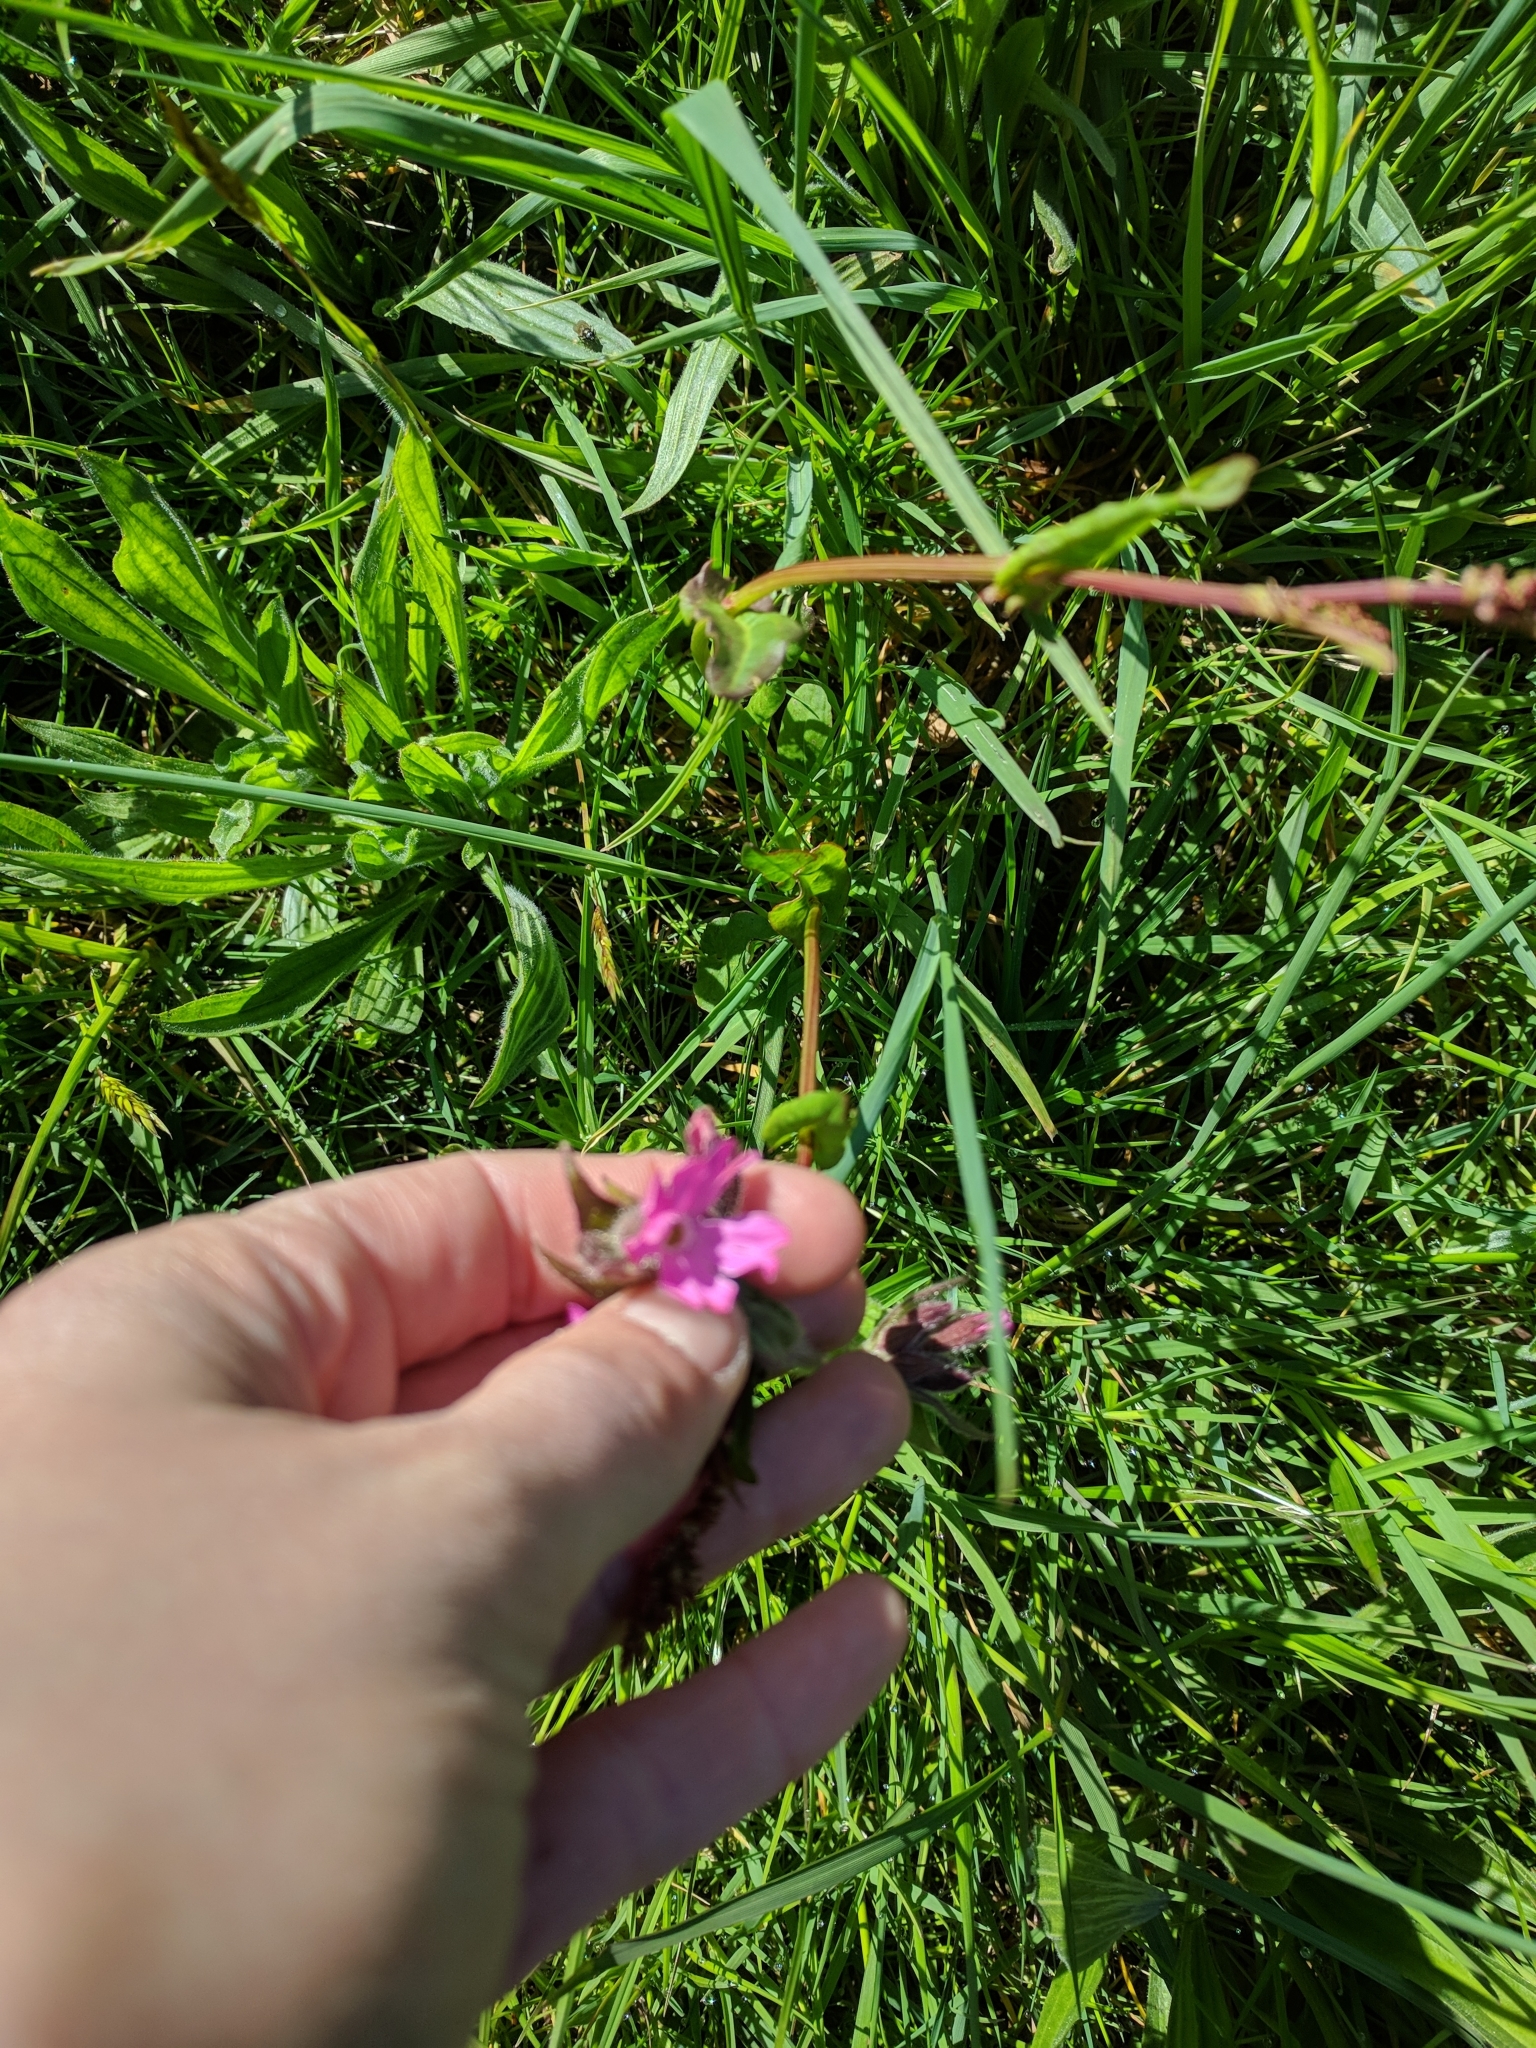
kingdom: Plantae
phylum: Tracheophyta
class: Magnoliopsida
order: Caryophyllales
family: Caryophyllaceae
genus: Silene
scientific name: Silene dioica
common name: Red campion
